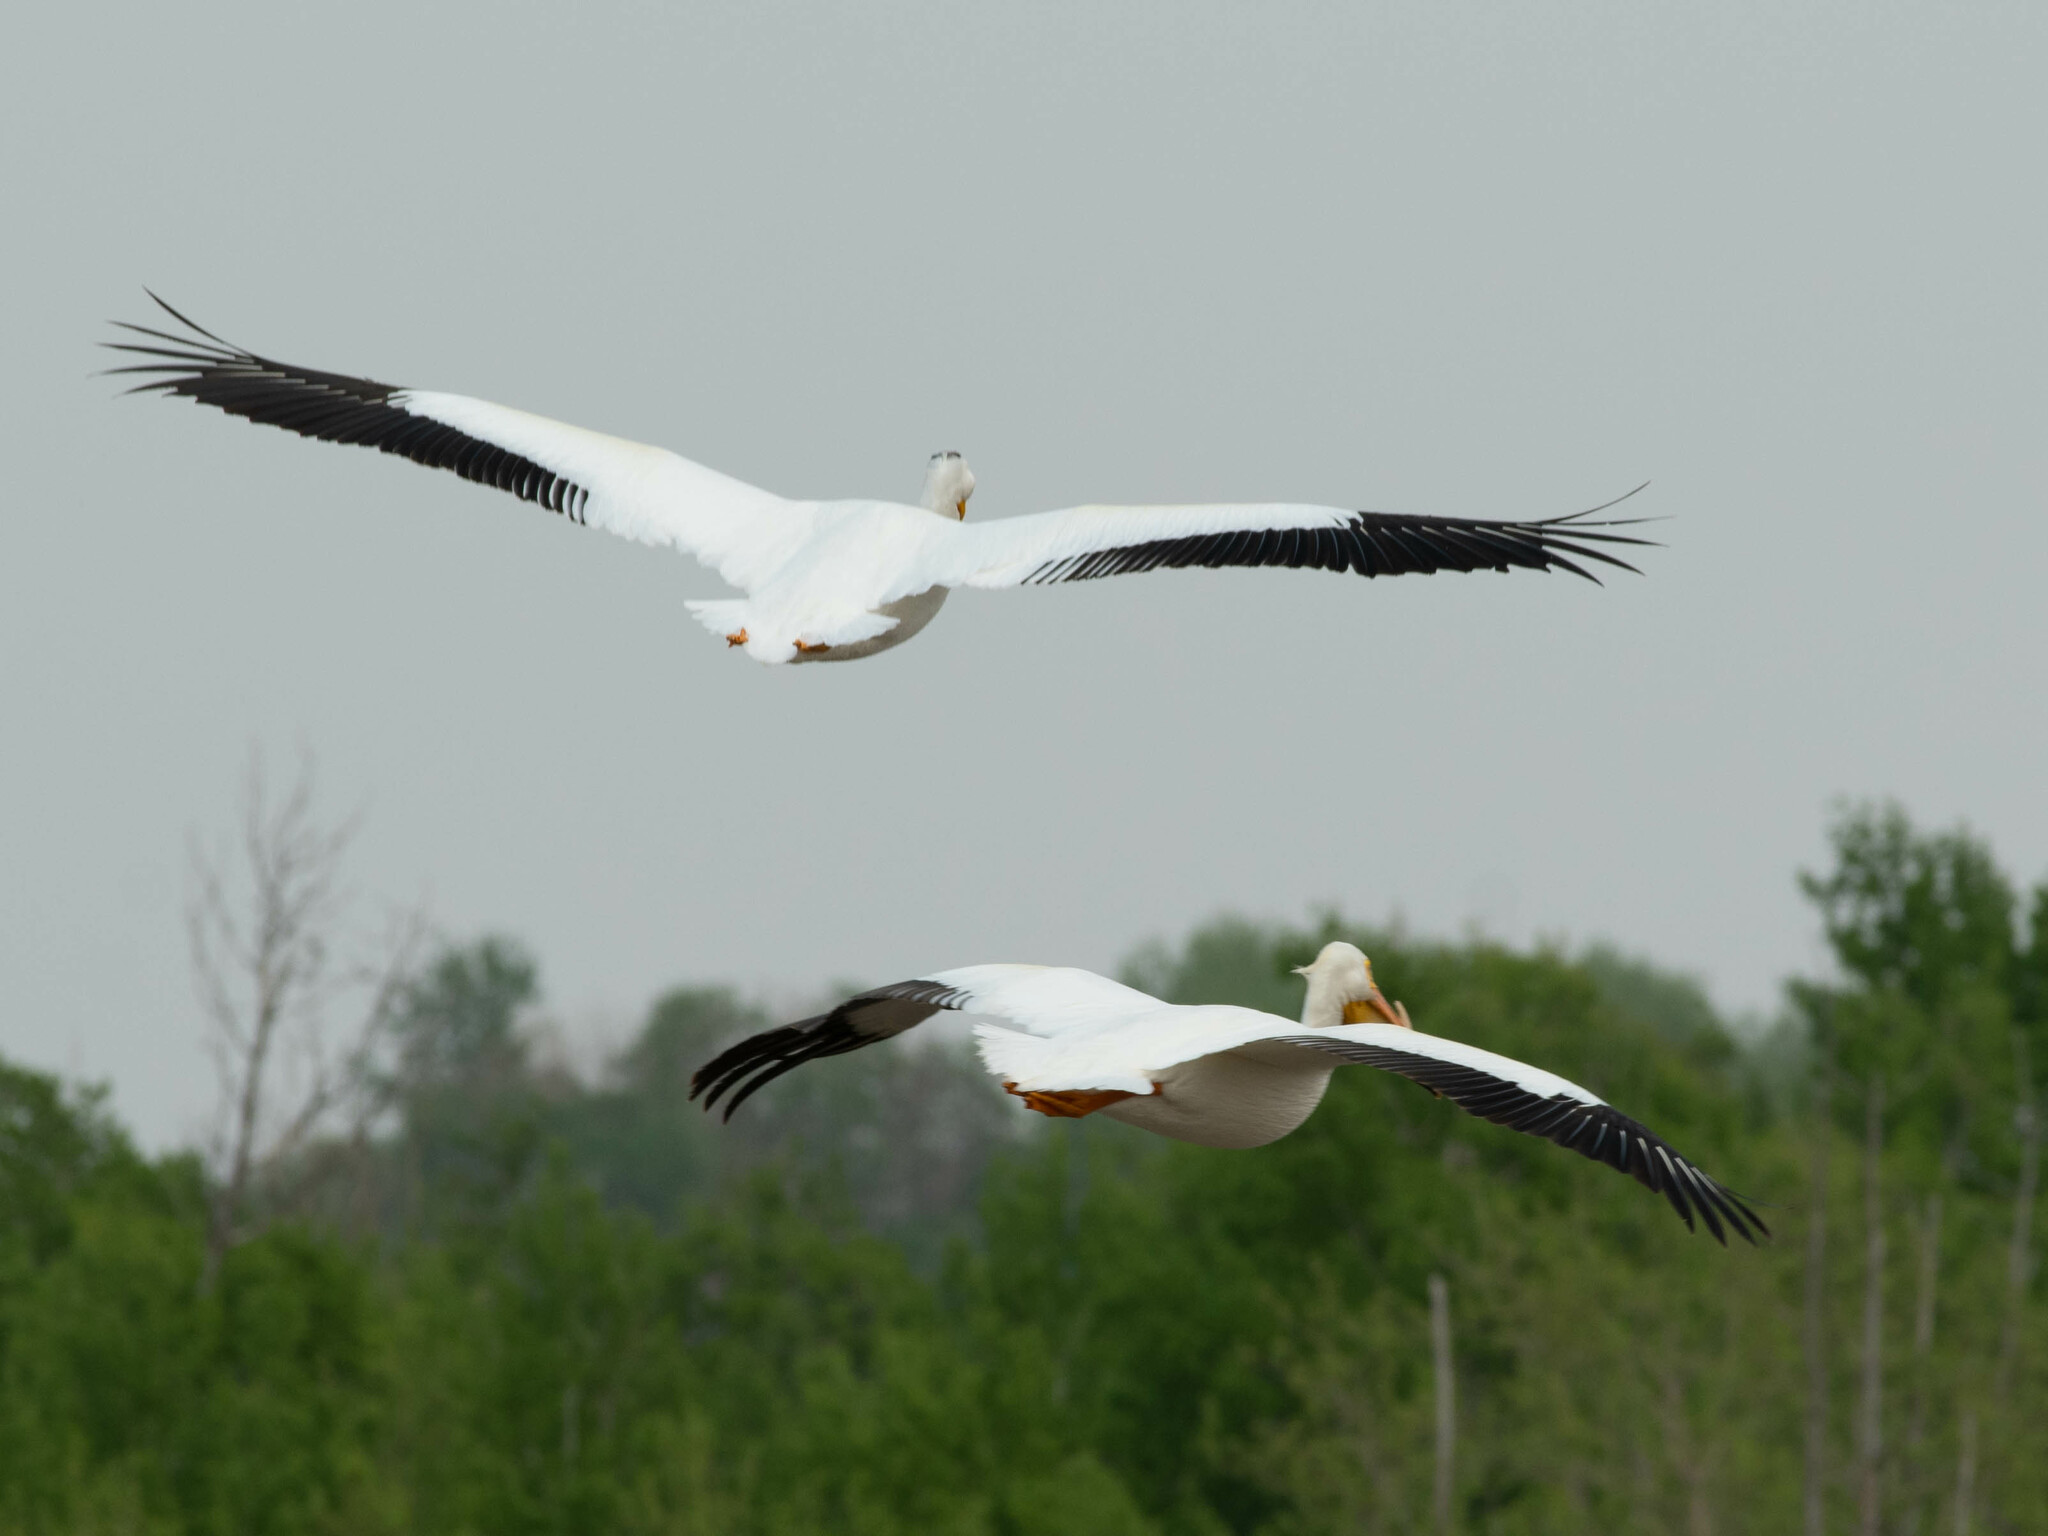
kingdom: Animalia
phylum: Chordata
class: Aves
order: Pelecaniformes
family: Pelecanidae
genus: Pelecanus
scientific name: Pelecanus erythrorhynchos
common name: American white pelican
